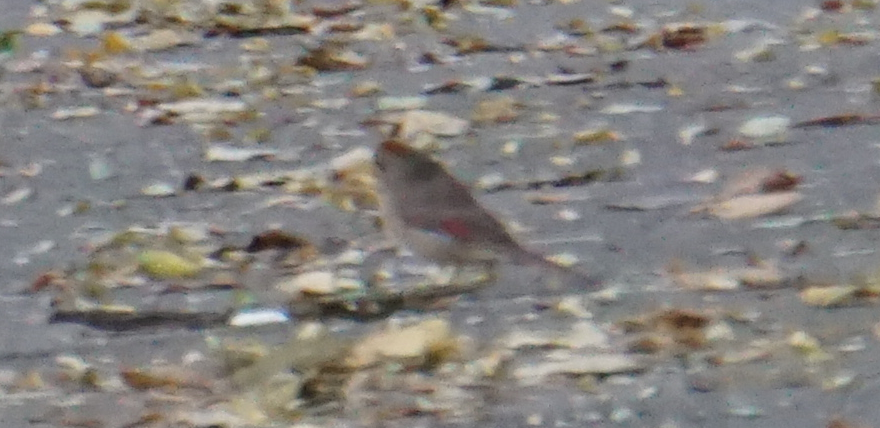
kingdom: Animalia
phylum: Chordata
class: Aves
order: Passeriformes
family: Cardinalidae
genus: Cardinalis
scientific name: Cardinalis cardinalis
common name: Northern cardinal
